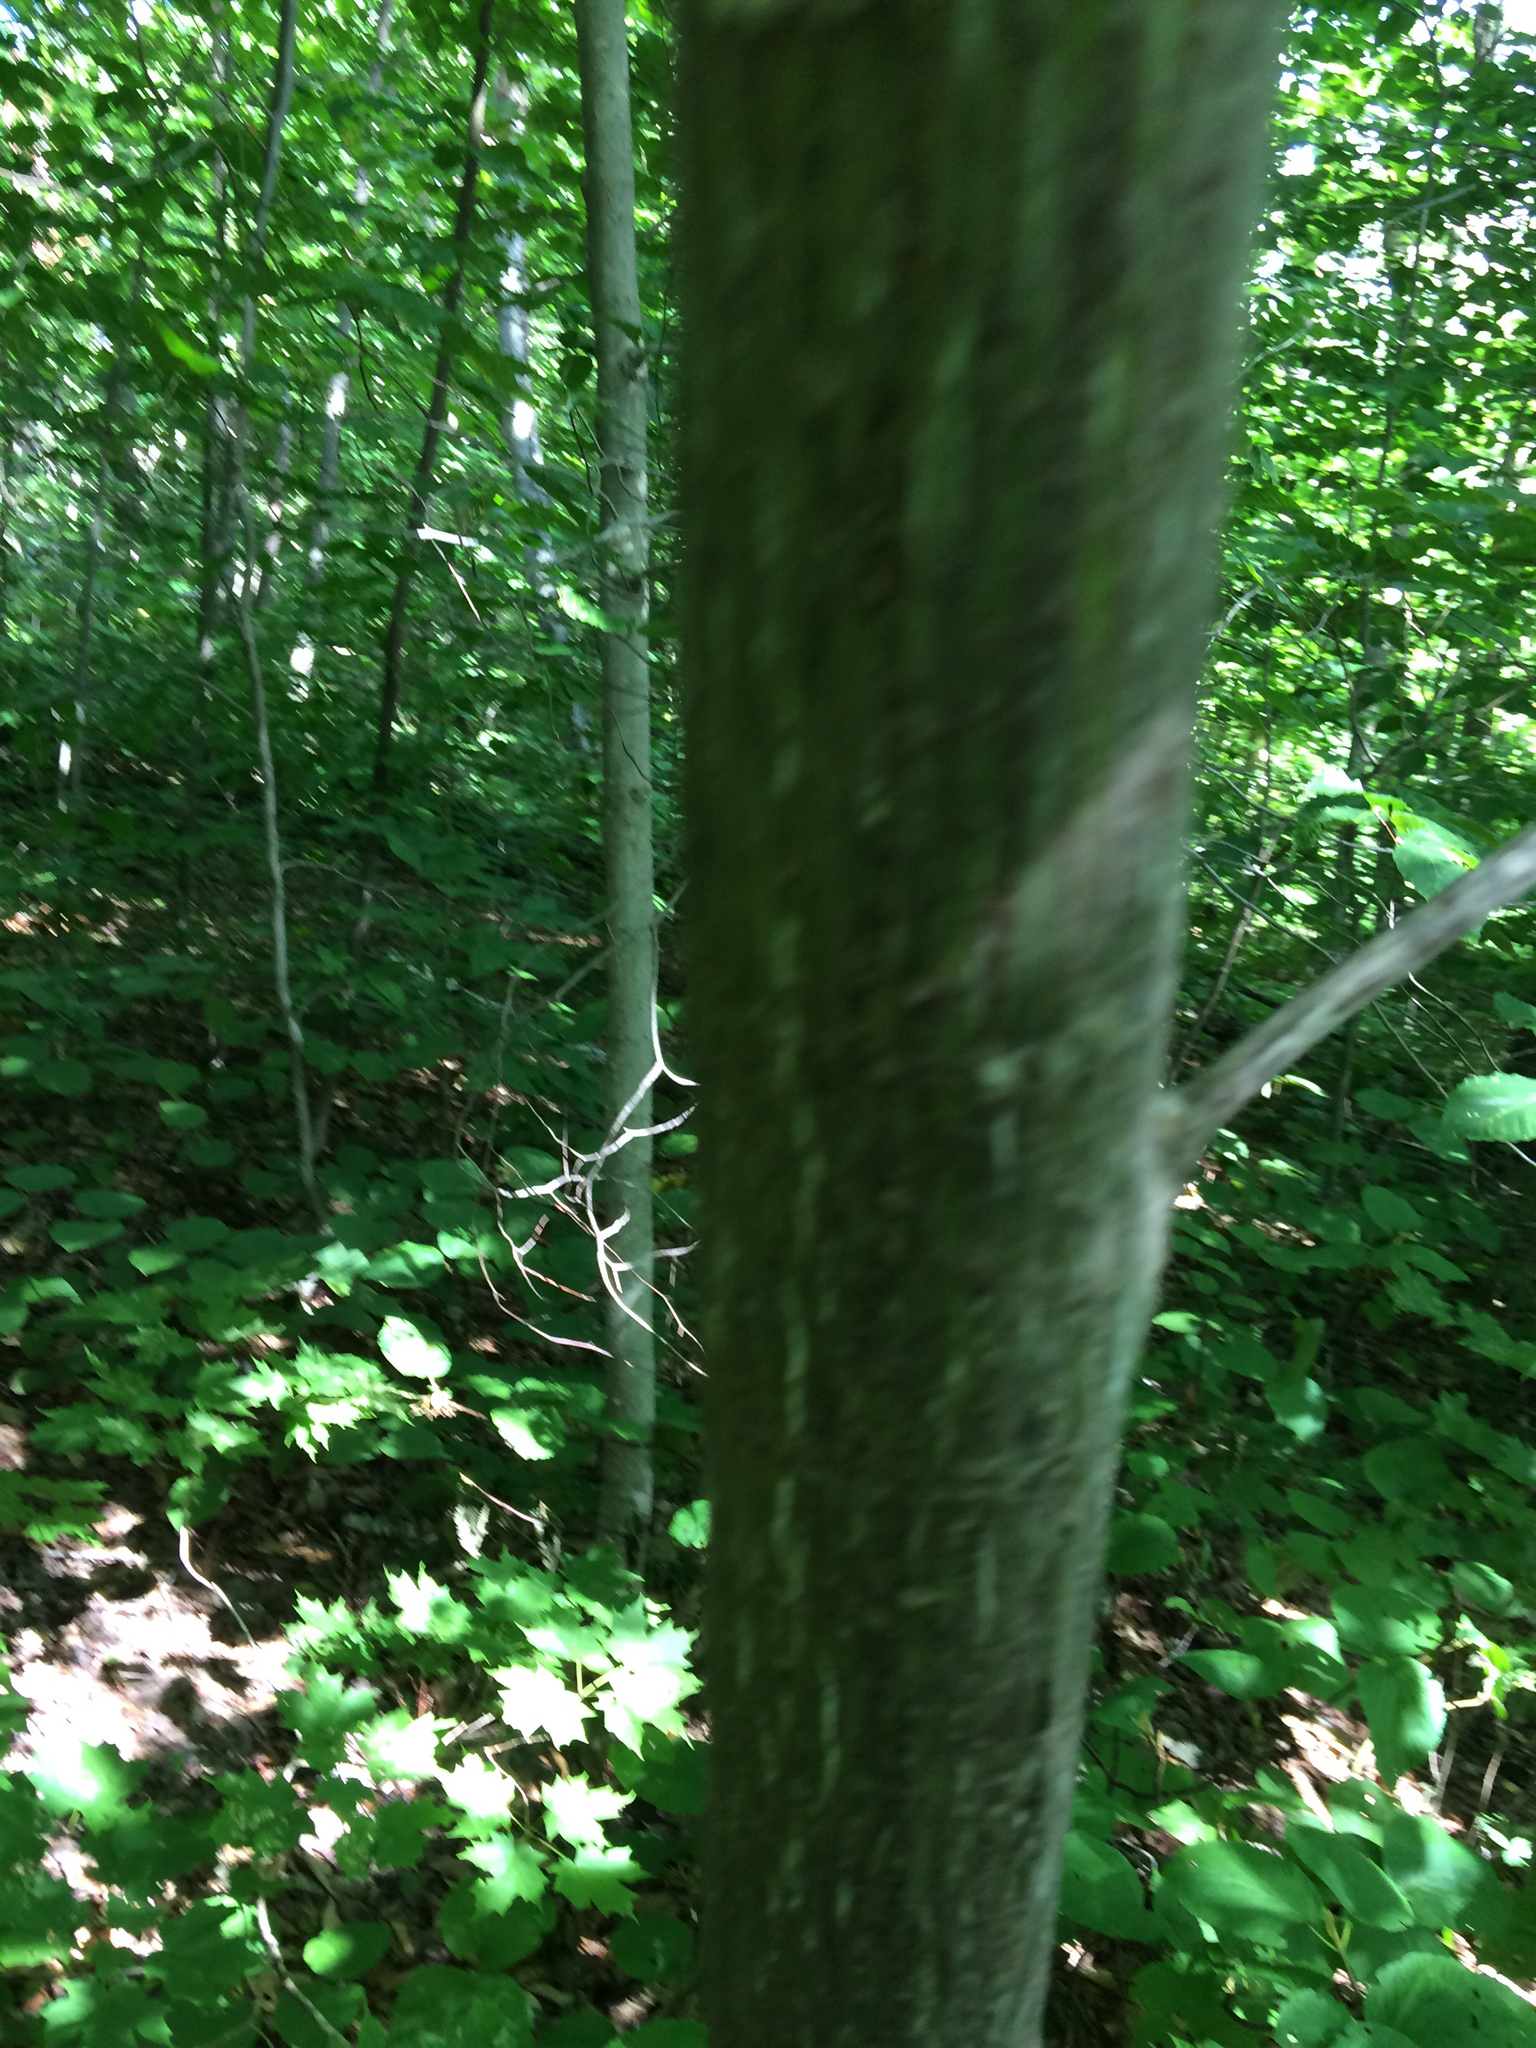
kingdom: Plantae
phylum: Tracheophyta
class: Magnoliopsida
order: Sapindales
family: Sapindaceae
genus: Acer
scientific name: Acer pensylvanicum
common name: Moosewood
